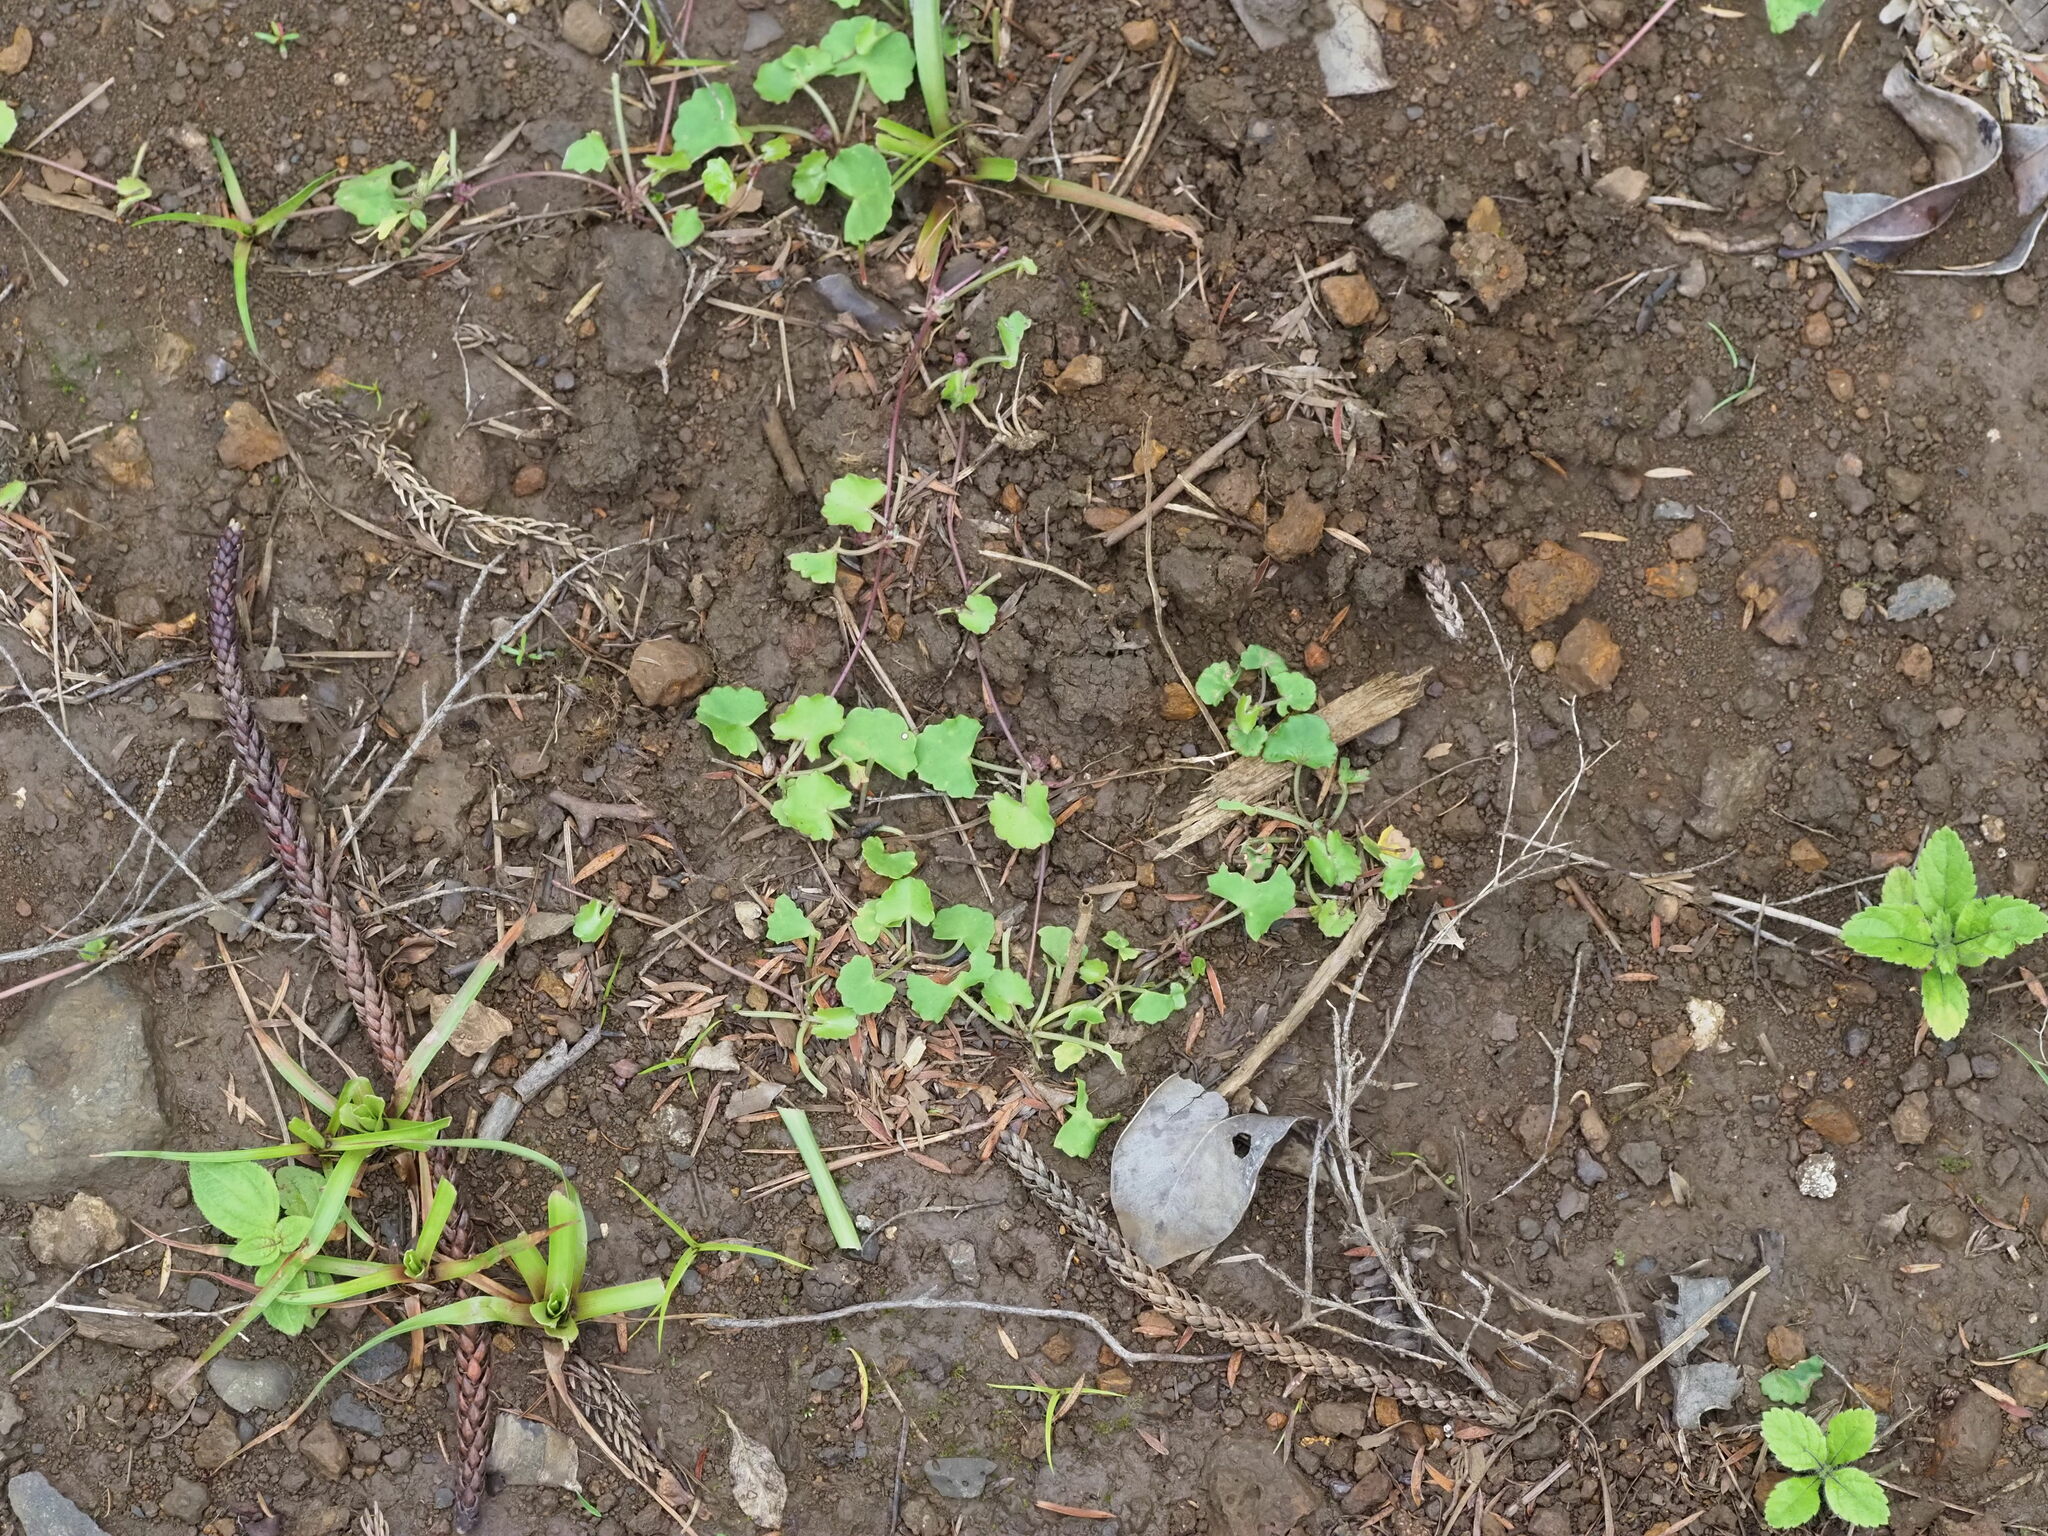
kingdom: Plantae
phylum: Tracheophyta
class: Magnoliopsida
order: Apiales
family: Apiaceae
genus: Centella
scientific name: Centella asiatica
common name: Spadeleaf
